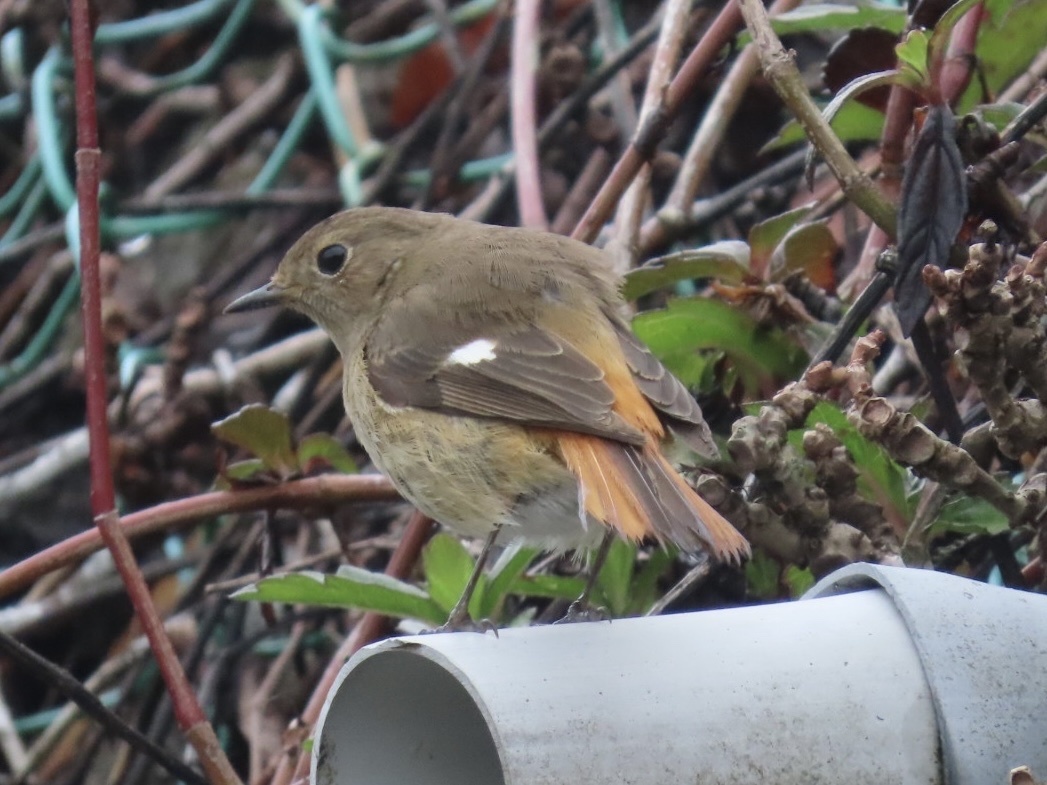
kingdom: Animalia
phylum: Chordata
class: Aves
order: Passeriformes
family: Muscicapidae
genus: Phoenicurus
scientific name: Phoenicurus auroreus
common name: Daurian redstart
